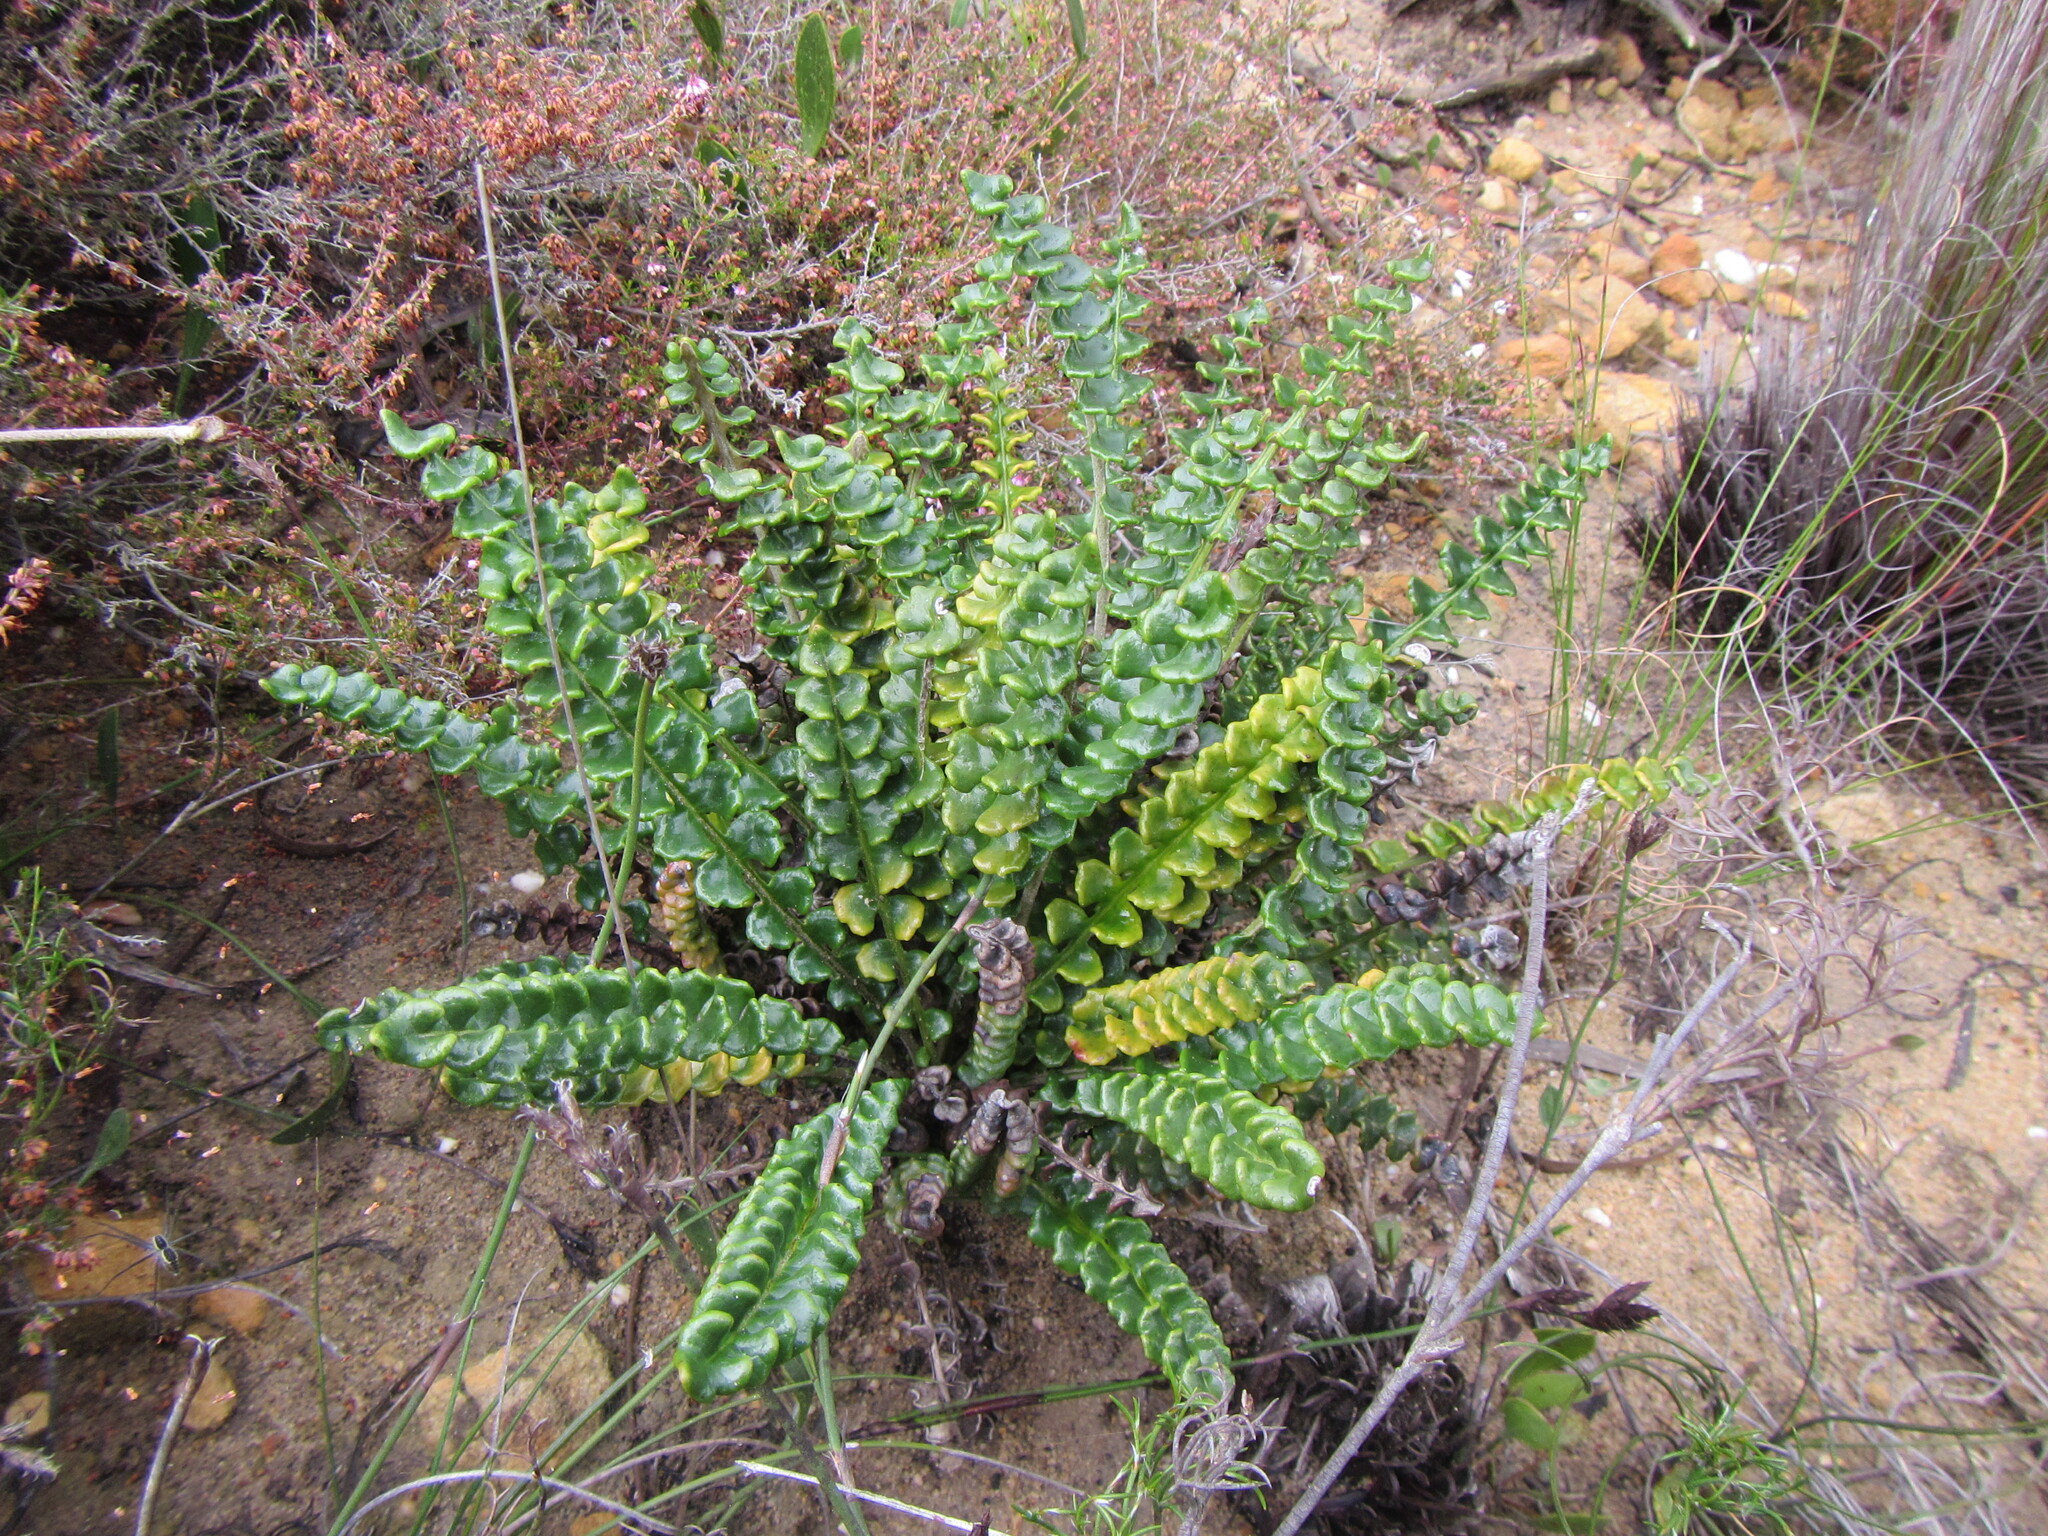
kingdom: Plantae
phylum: Tracheophyta
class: Magnoliopsida
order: Asterales
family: Asteraceae
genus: Gerbera
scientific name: Gerbera linnaei
